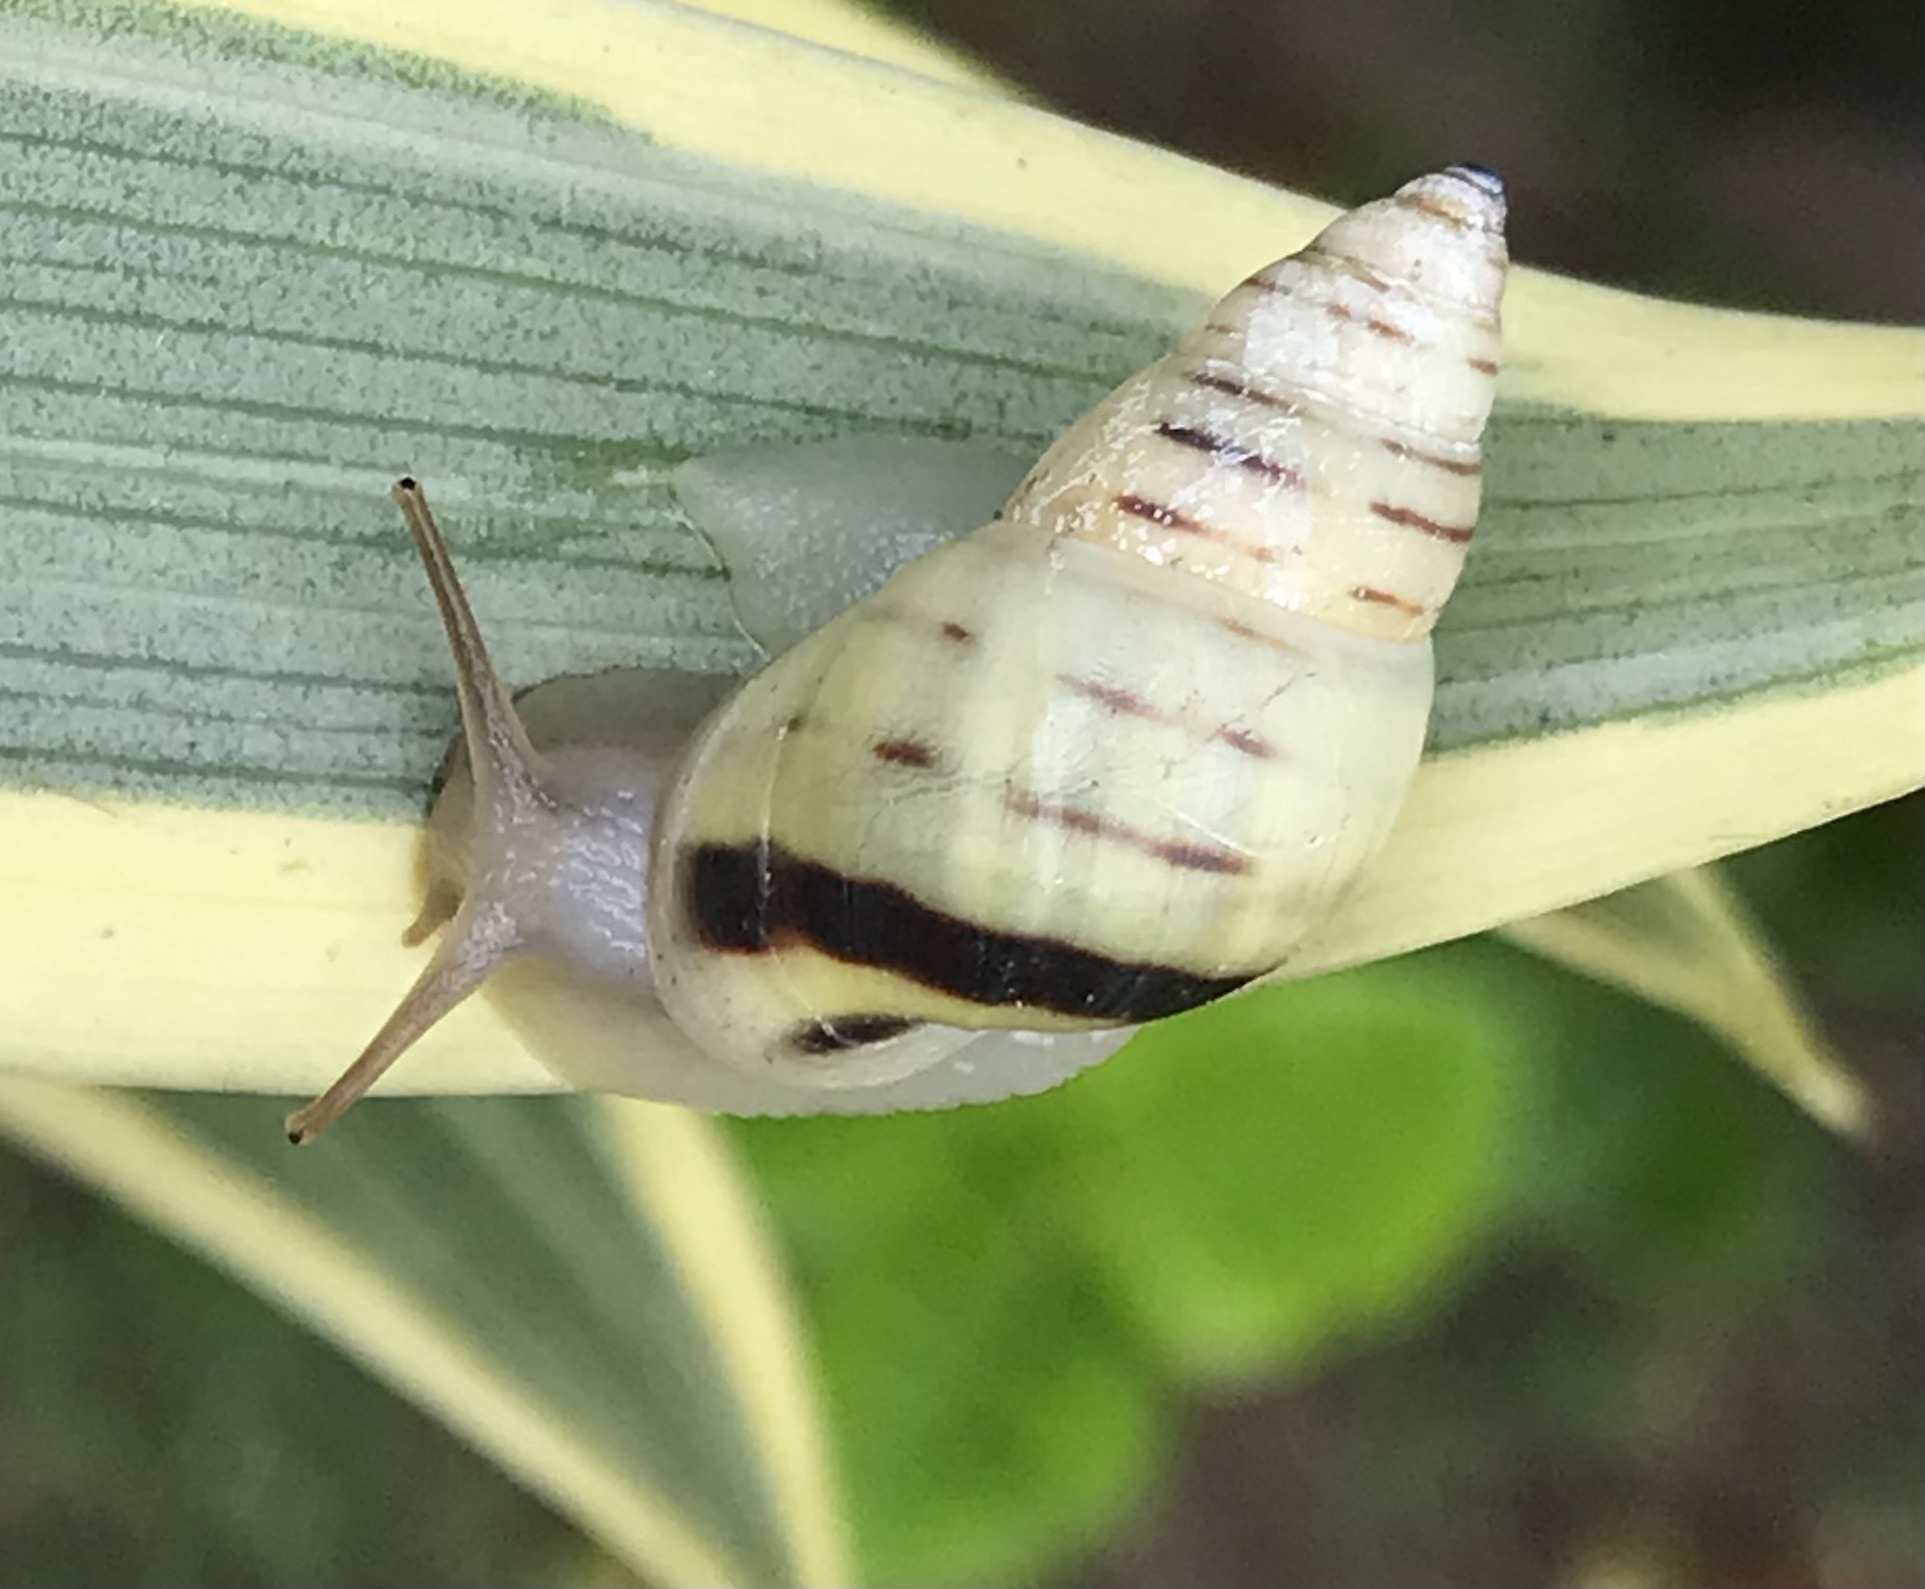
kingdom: Animalia
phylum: Mollusca
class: Gastropoda
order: Stylommatophora
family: Bulimulidae
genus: Drymaeus
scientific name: Drymaeus
